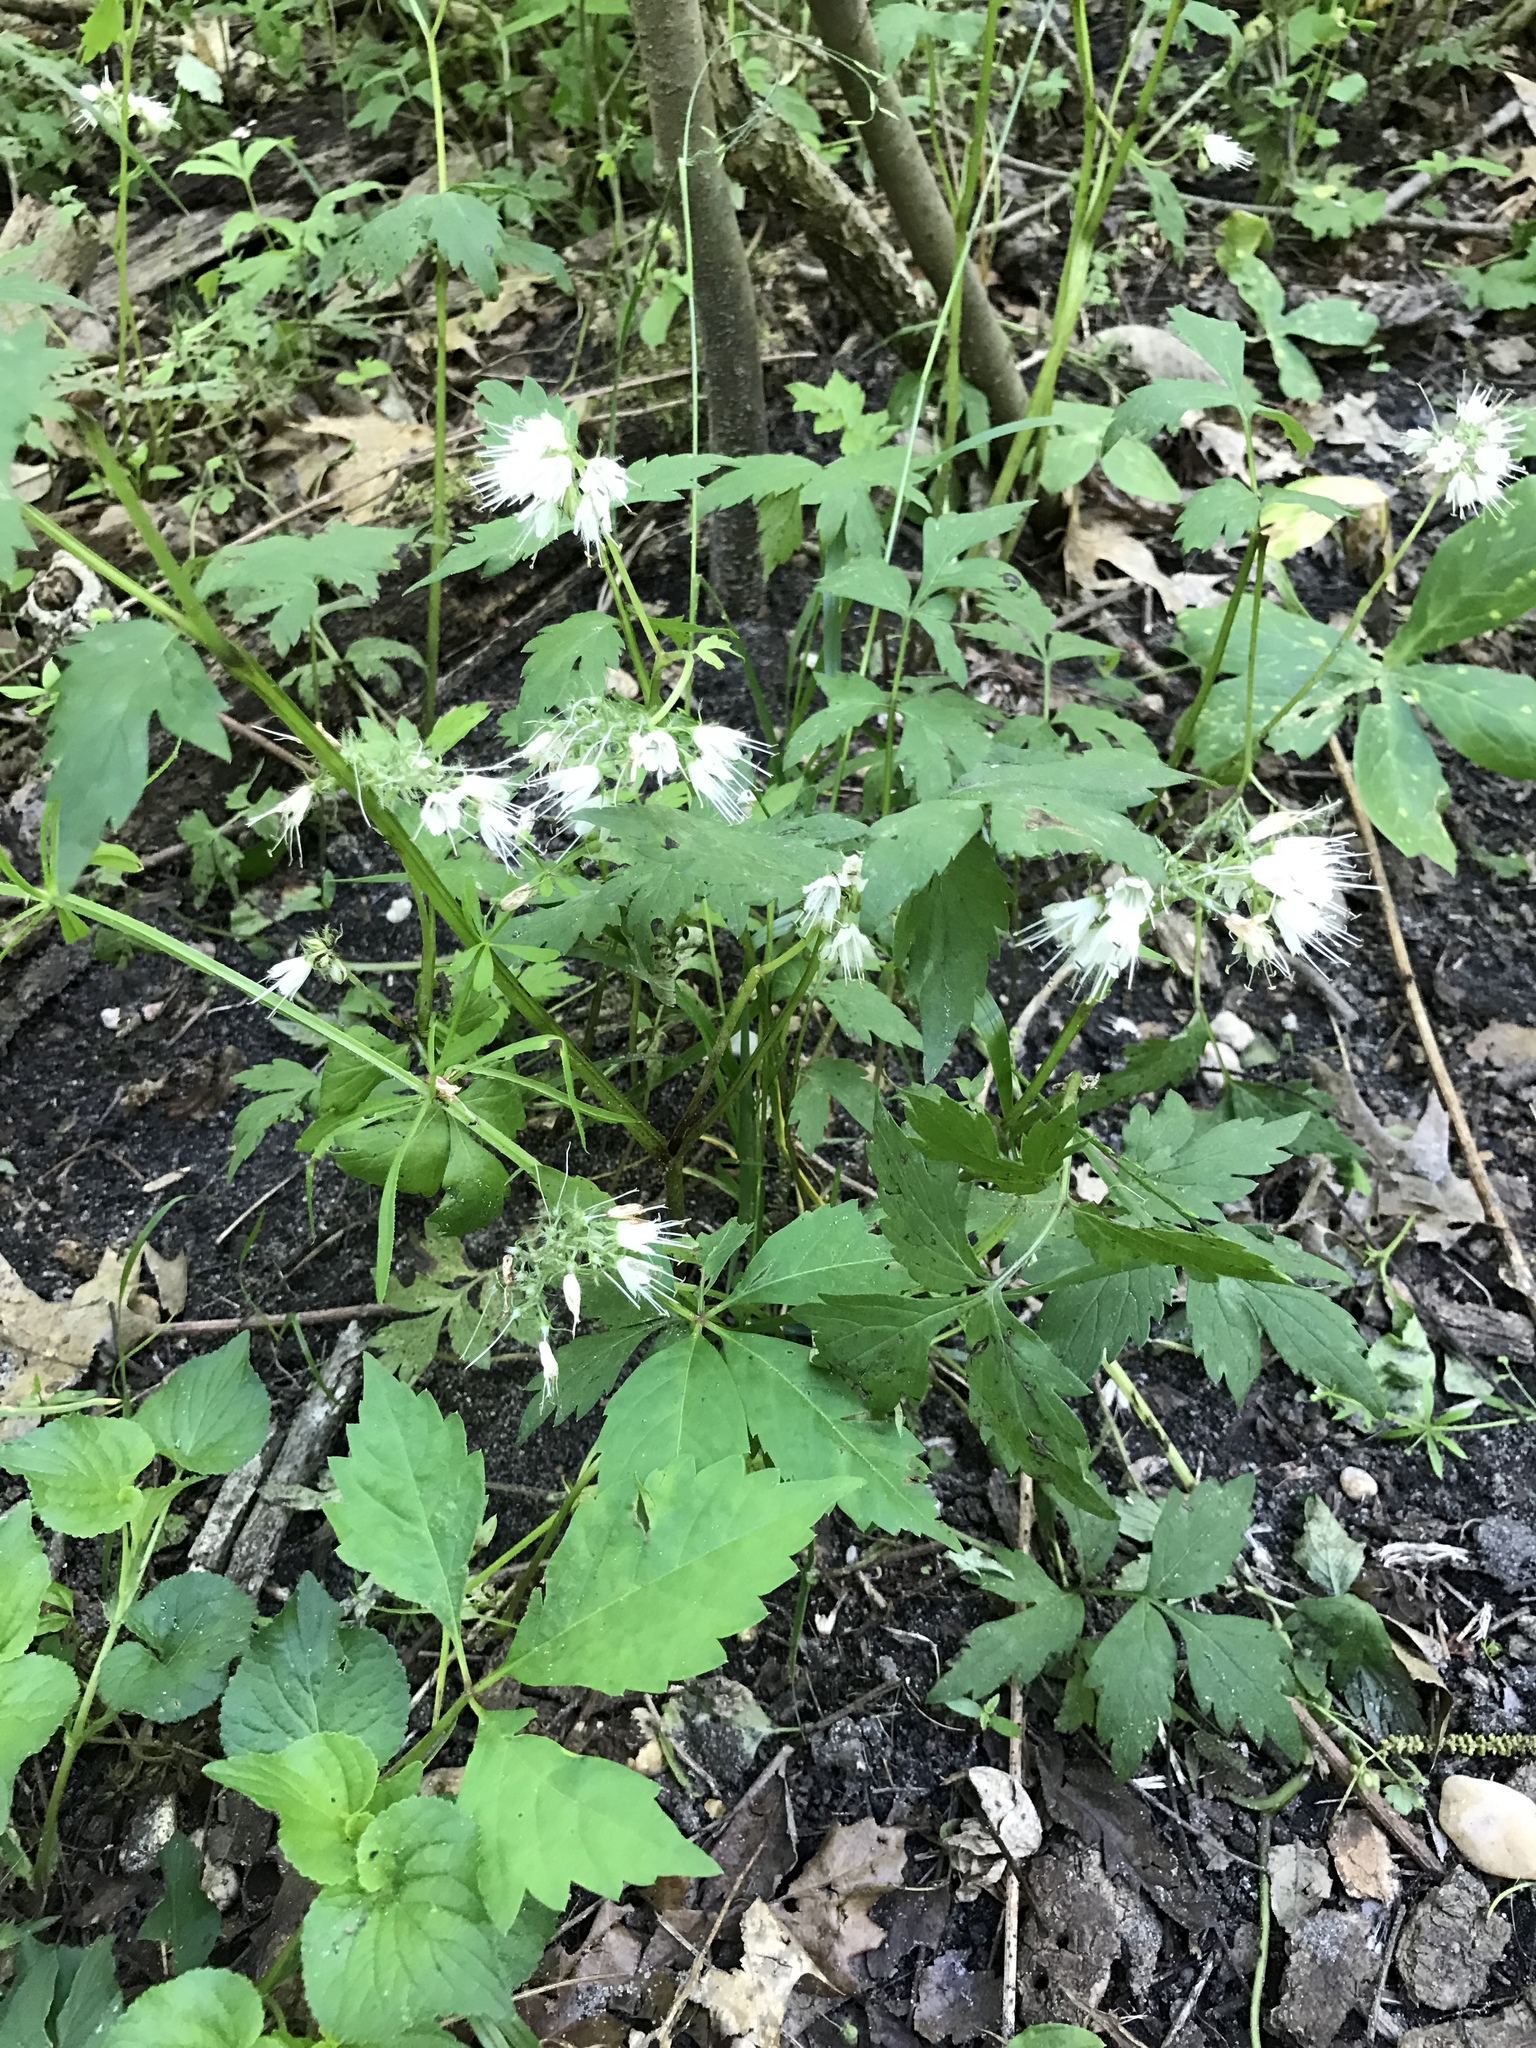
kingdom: Plantae
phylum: Tracheophyta
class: Magnoliopsida
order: Boraginales
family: Hydrophyllaceae
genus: Hydrophyllum
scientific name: Hydrophyllum virginianum
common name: Virginia waterleaf
